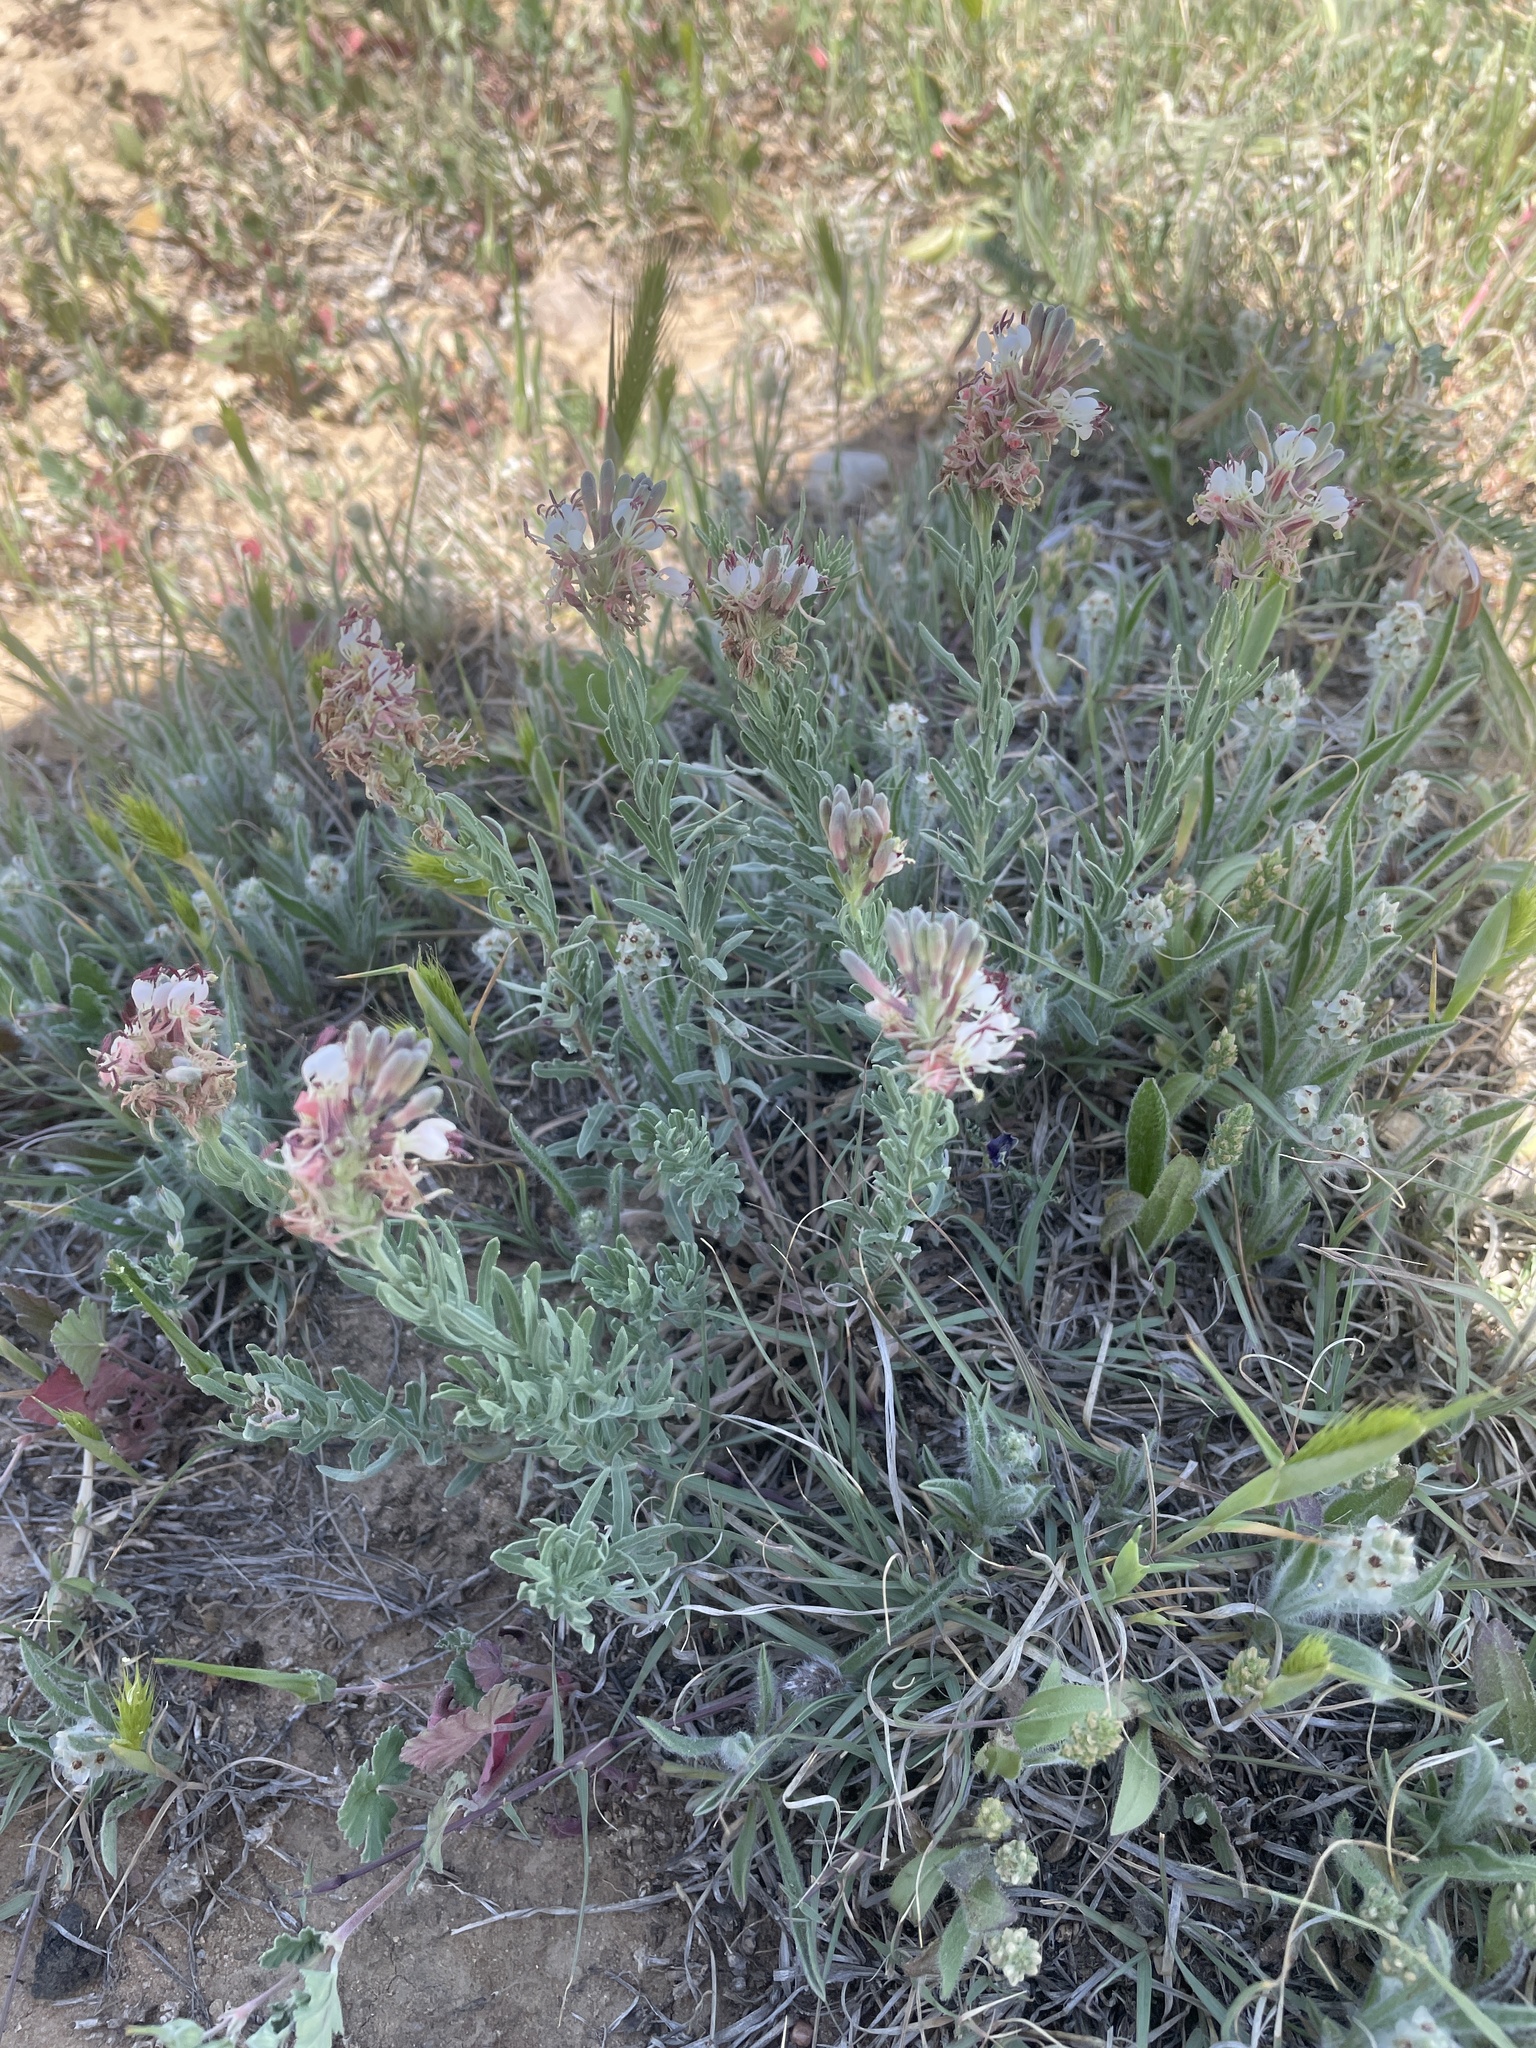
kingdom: Plantae
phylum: Tracheophyta
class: Magnoliopsida
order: Myrtales
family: Onagraceae
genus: Oenothera
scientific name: Oenothera suffrutescens
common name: Scarlet beeblossom
